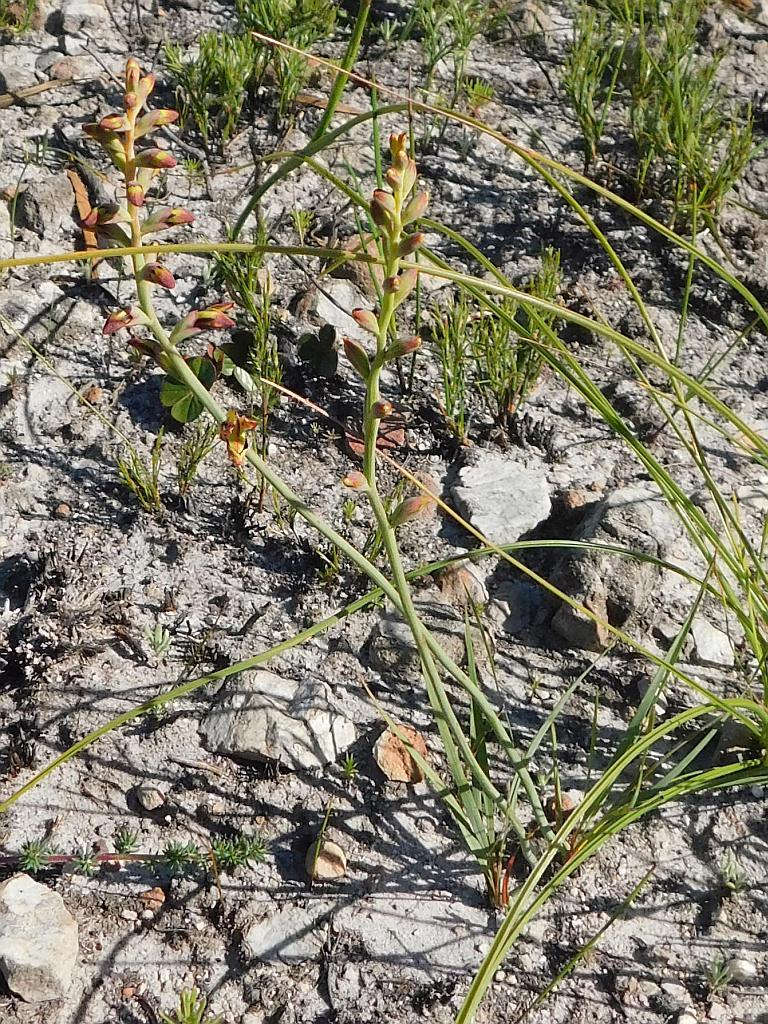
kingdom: Plantae
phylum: Tracheophyta
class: Liliopsida
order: Asparagales
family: Iridaceae
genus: Tritoniopsis
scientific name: Tritoniopsis parviflora
